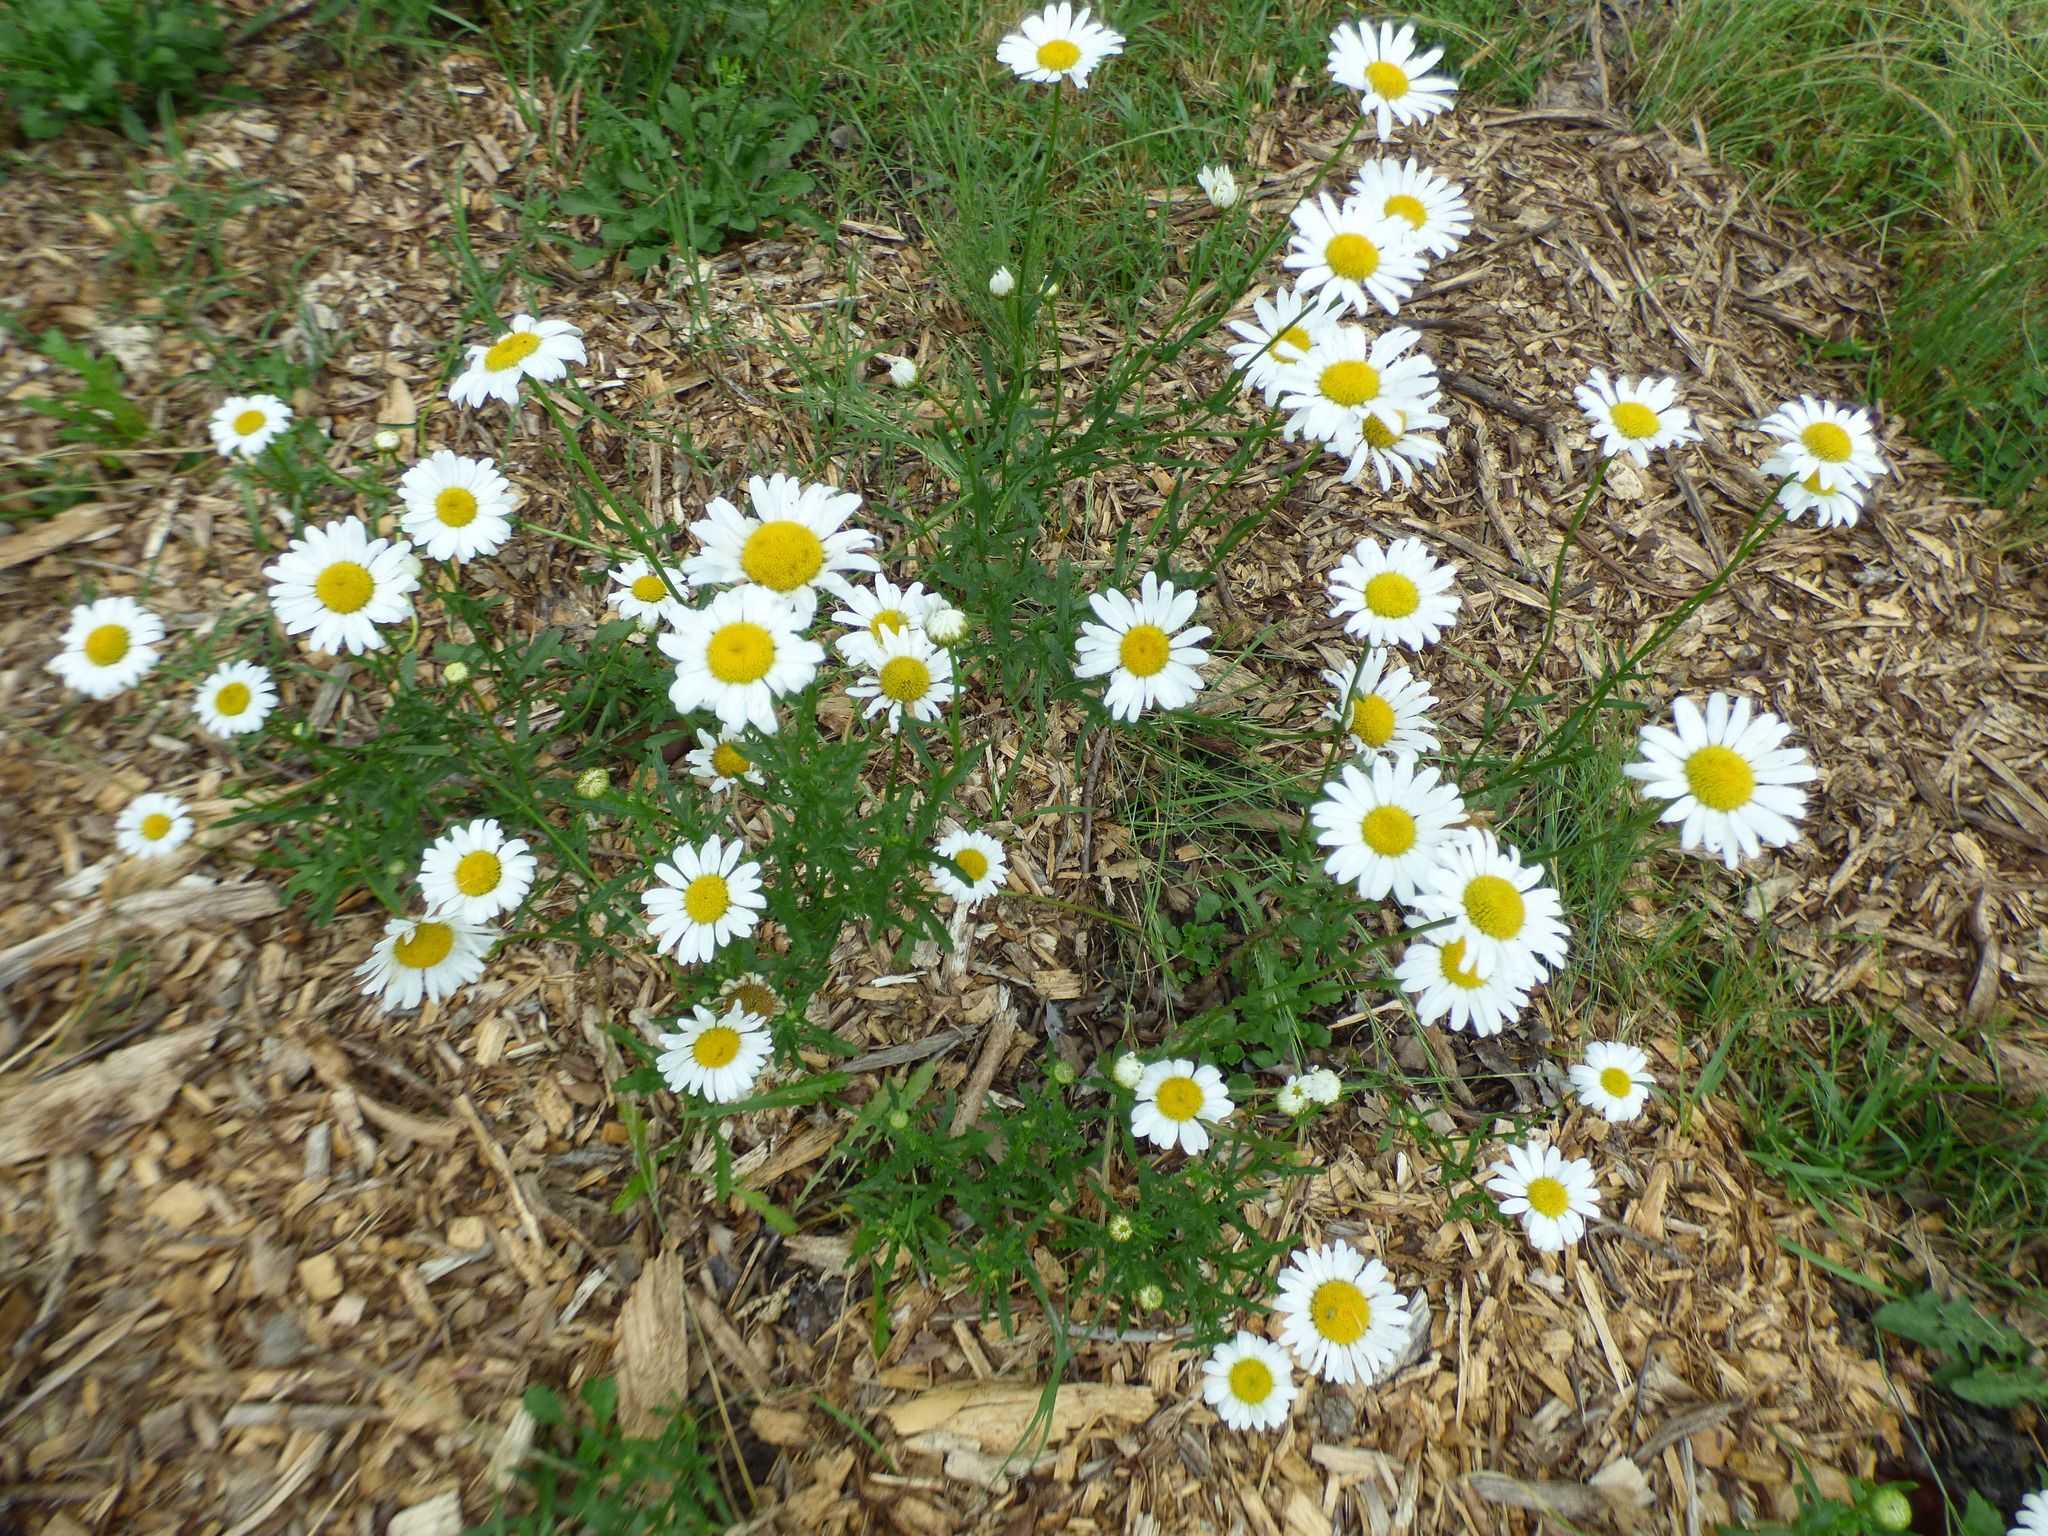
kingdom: Plantae
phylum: Tracheophyta
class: Magnoliopsida
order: Asterales
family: Asteraceae
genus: Leucanthemum
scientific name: Leucanthemum vulgare
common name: Oxeye daisy
